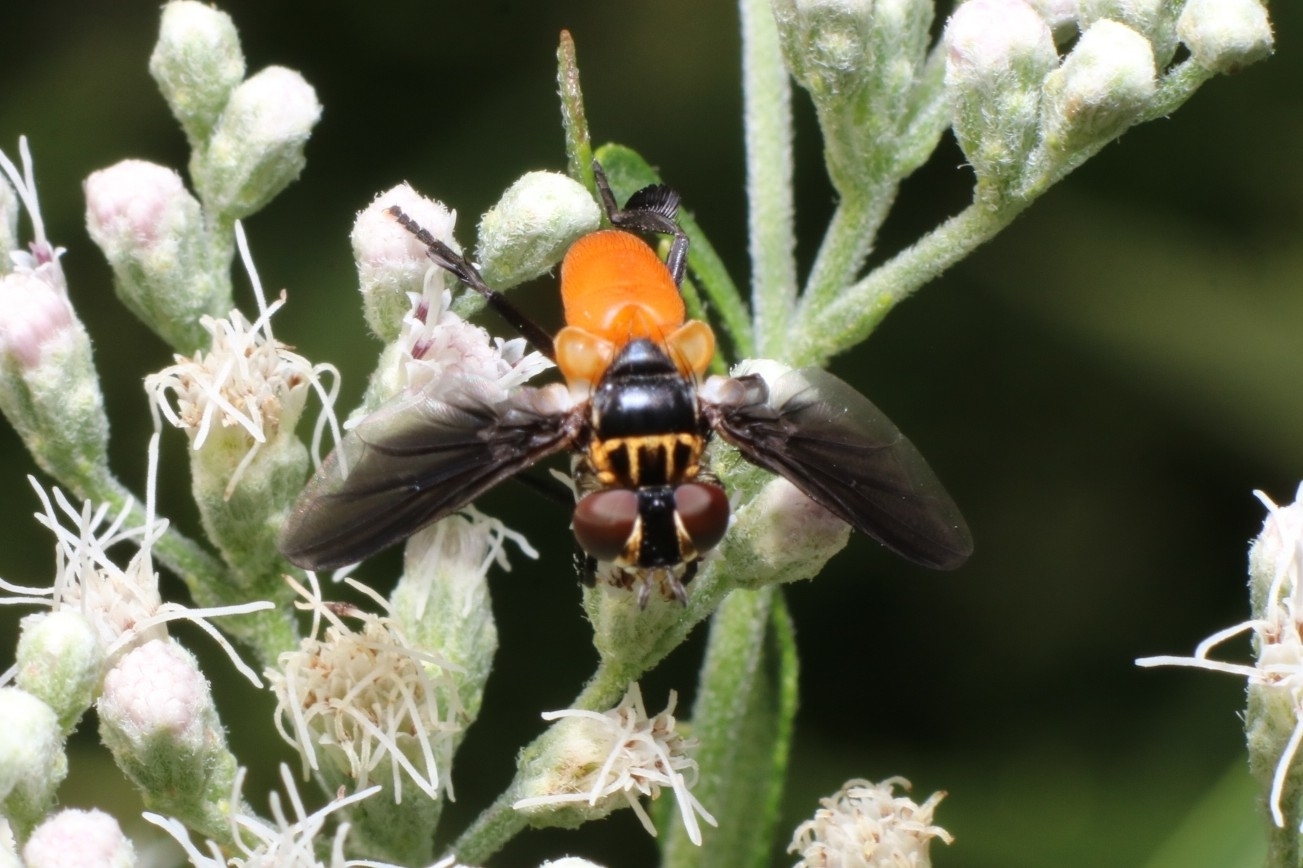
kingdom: Animalia
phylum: Arthropoda
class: Insecta
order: Diptera
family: Tachinidae
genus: Trichopoda
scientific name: Trichopoda pennipes
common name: Tachinid fly
